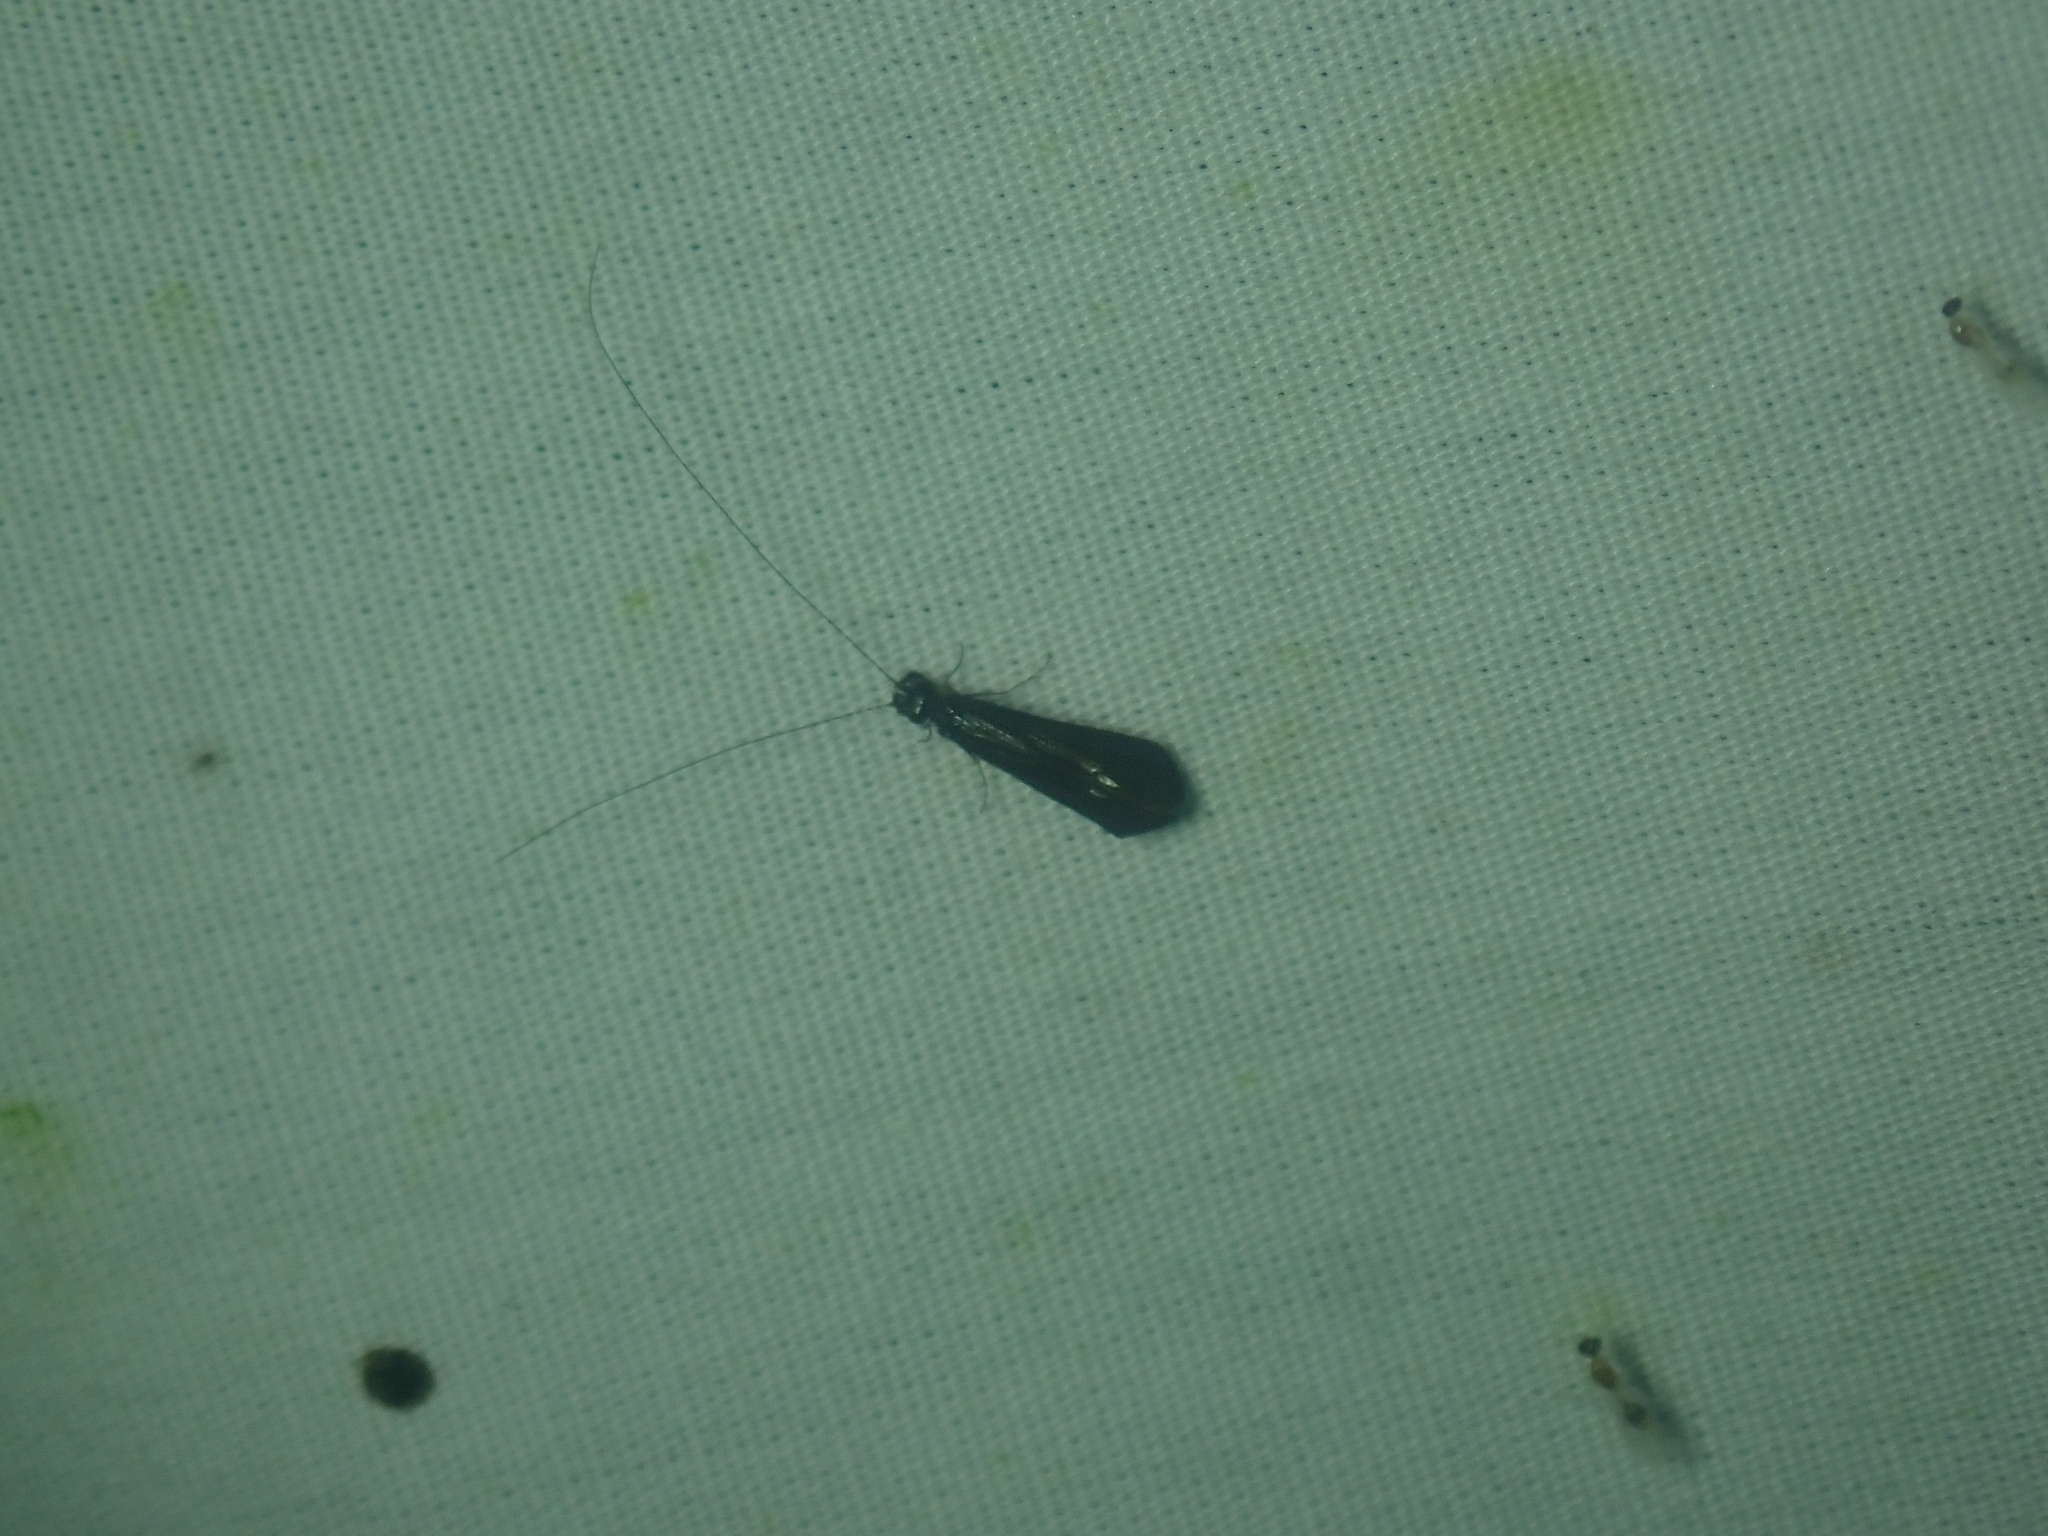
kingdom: Animalia
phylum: Arthropoda
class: Insecta
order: Trichoptera
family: Leptoceridae
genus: Mystacides
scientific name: Mystacides sepulchralis
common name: Black dancer caddisfly
